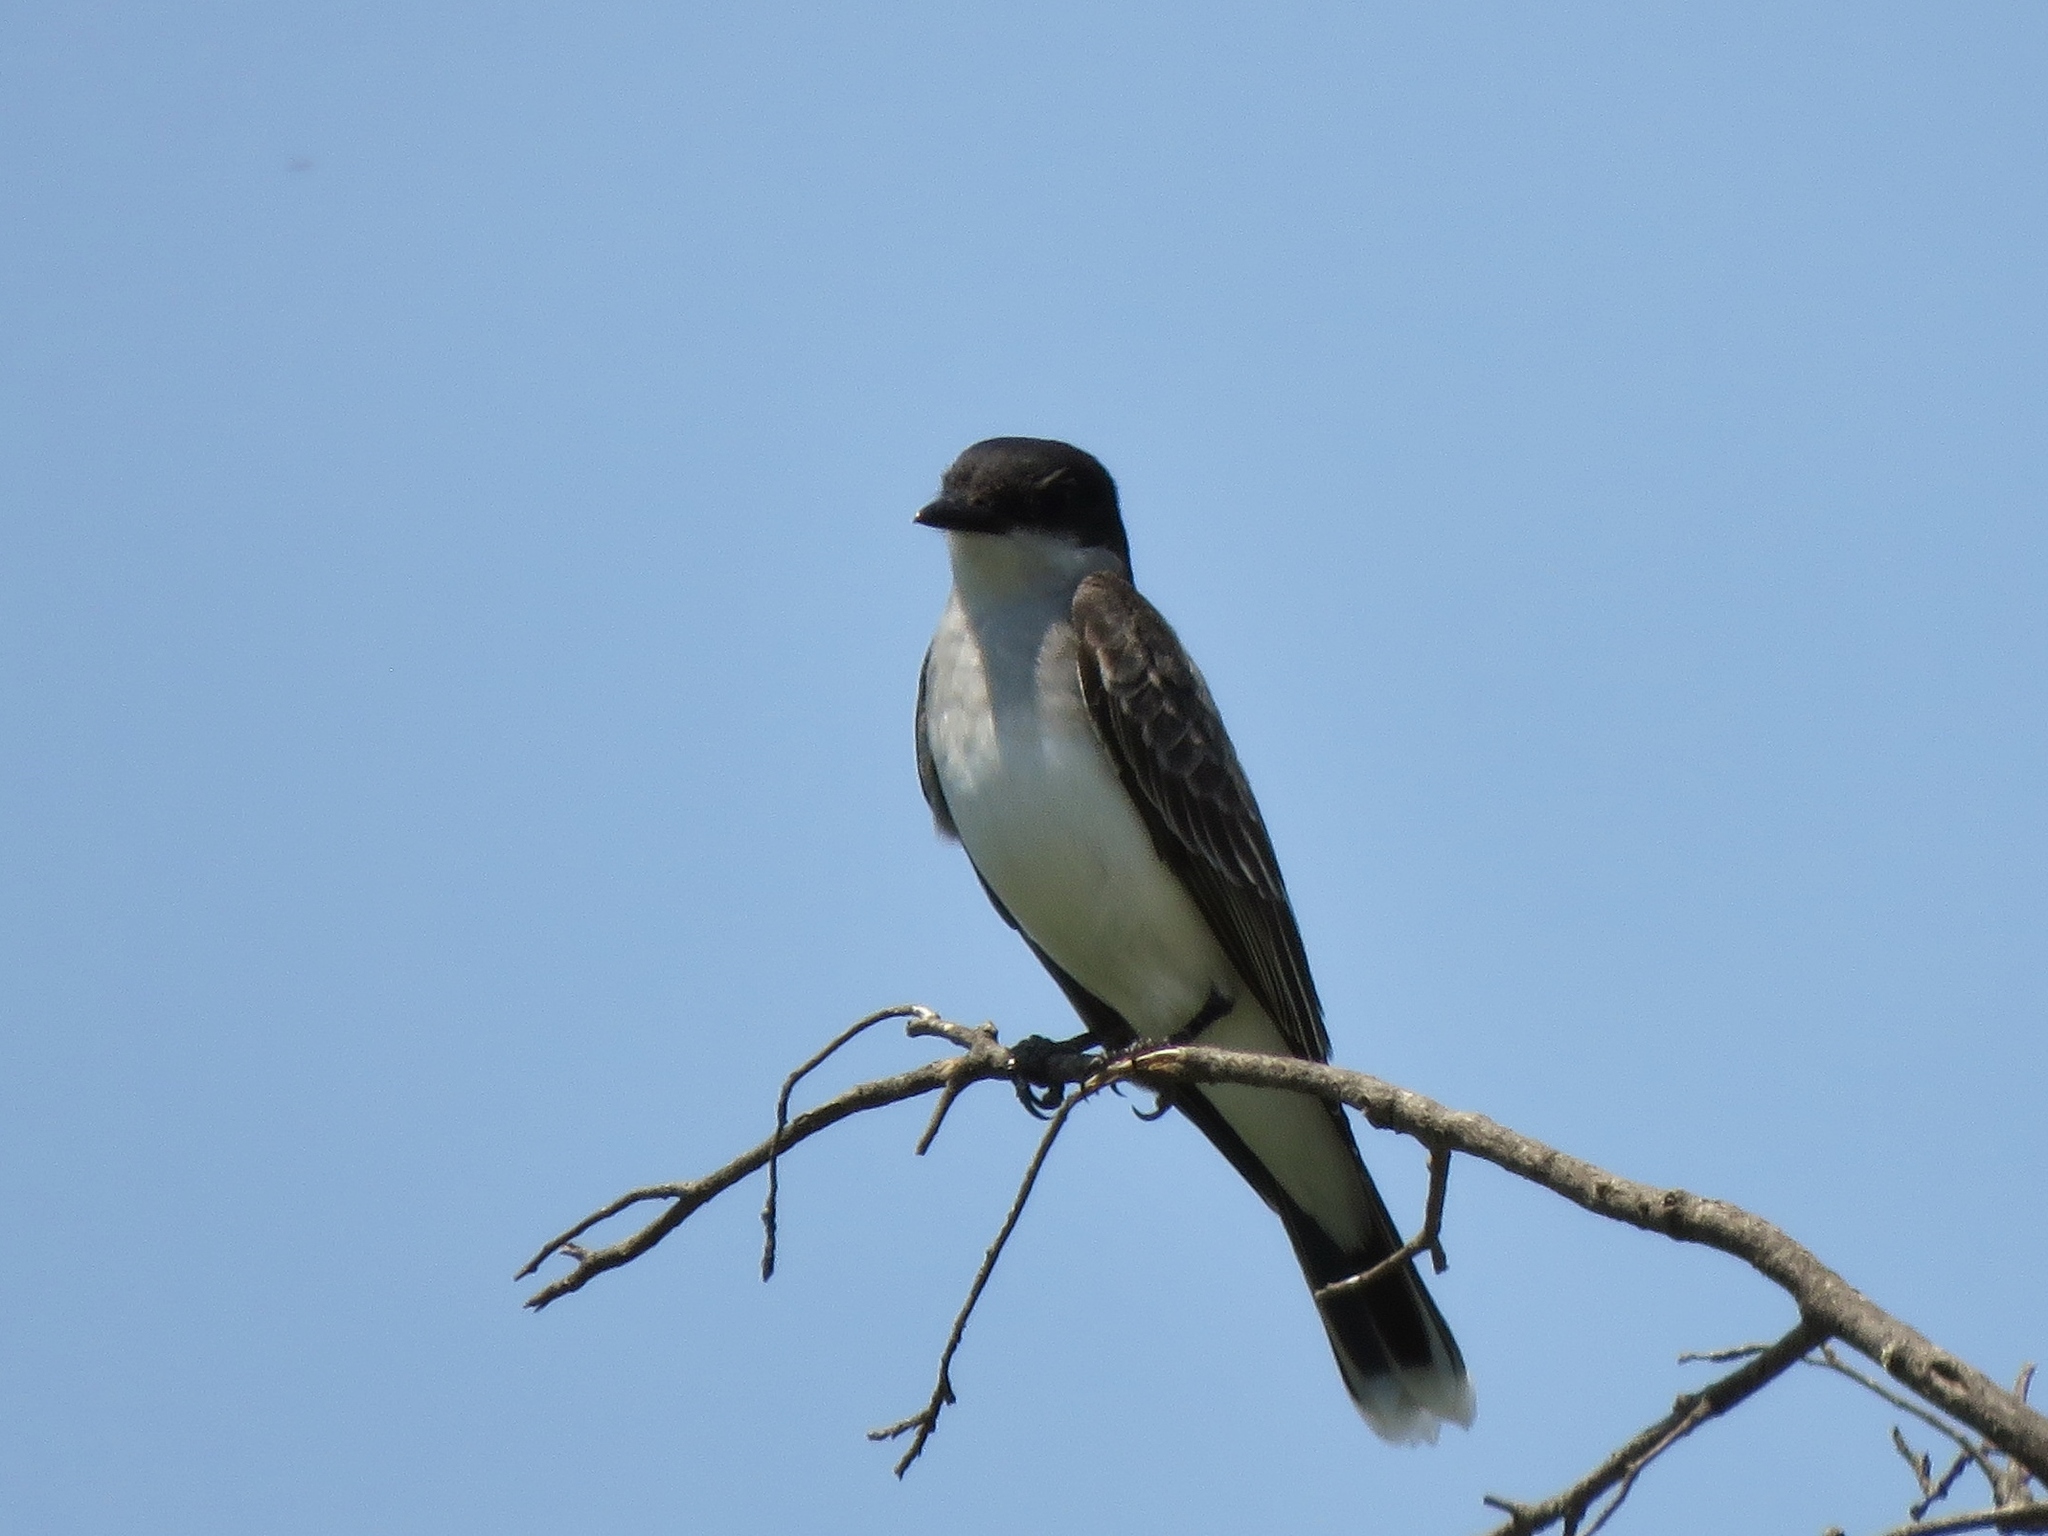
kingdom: Animalia
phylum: Chordata
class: Aves
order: Passeriformes
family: Tyrannidae
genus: Tyrannus
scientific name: Tyrannus tyrannus
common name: Eastern kingbird
